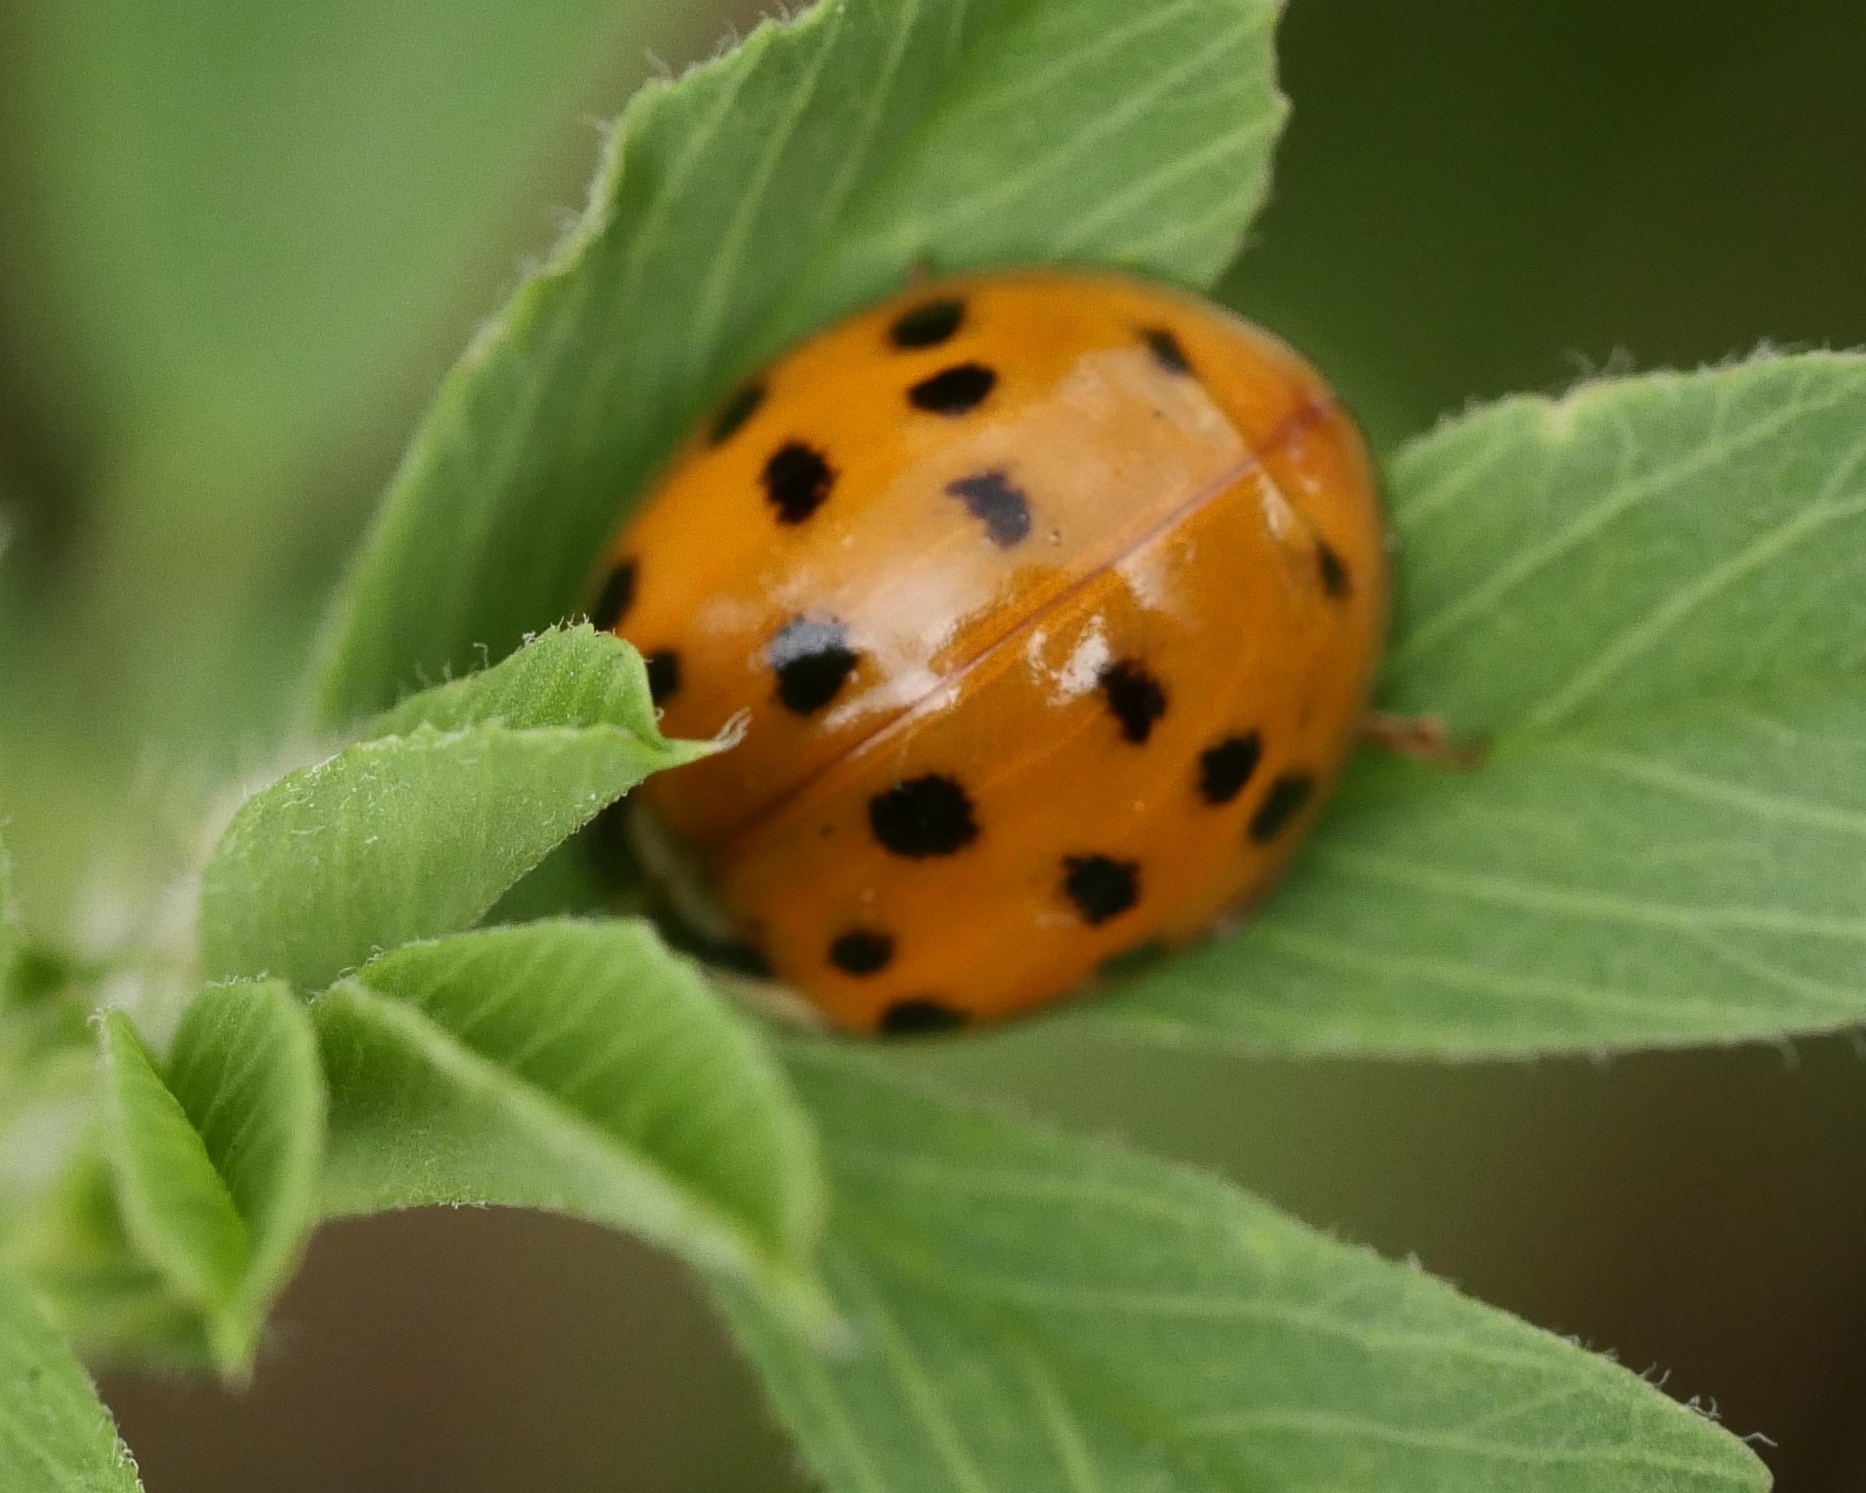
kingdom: Animalia
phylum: Arthropoda
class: Insecta
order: Coleoptera
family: Coccinellidae
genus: Harmonia
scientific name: Harmonia axyridis
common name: Harlequin ladybird
